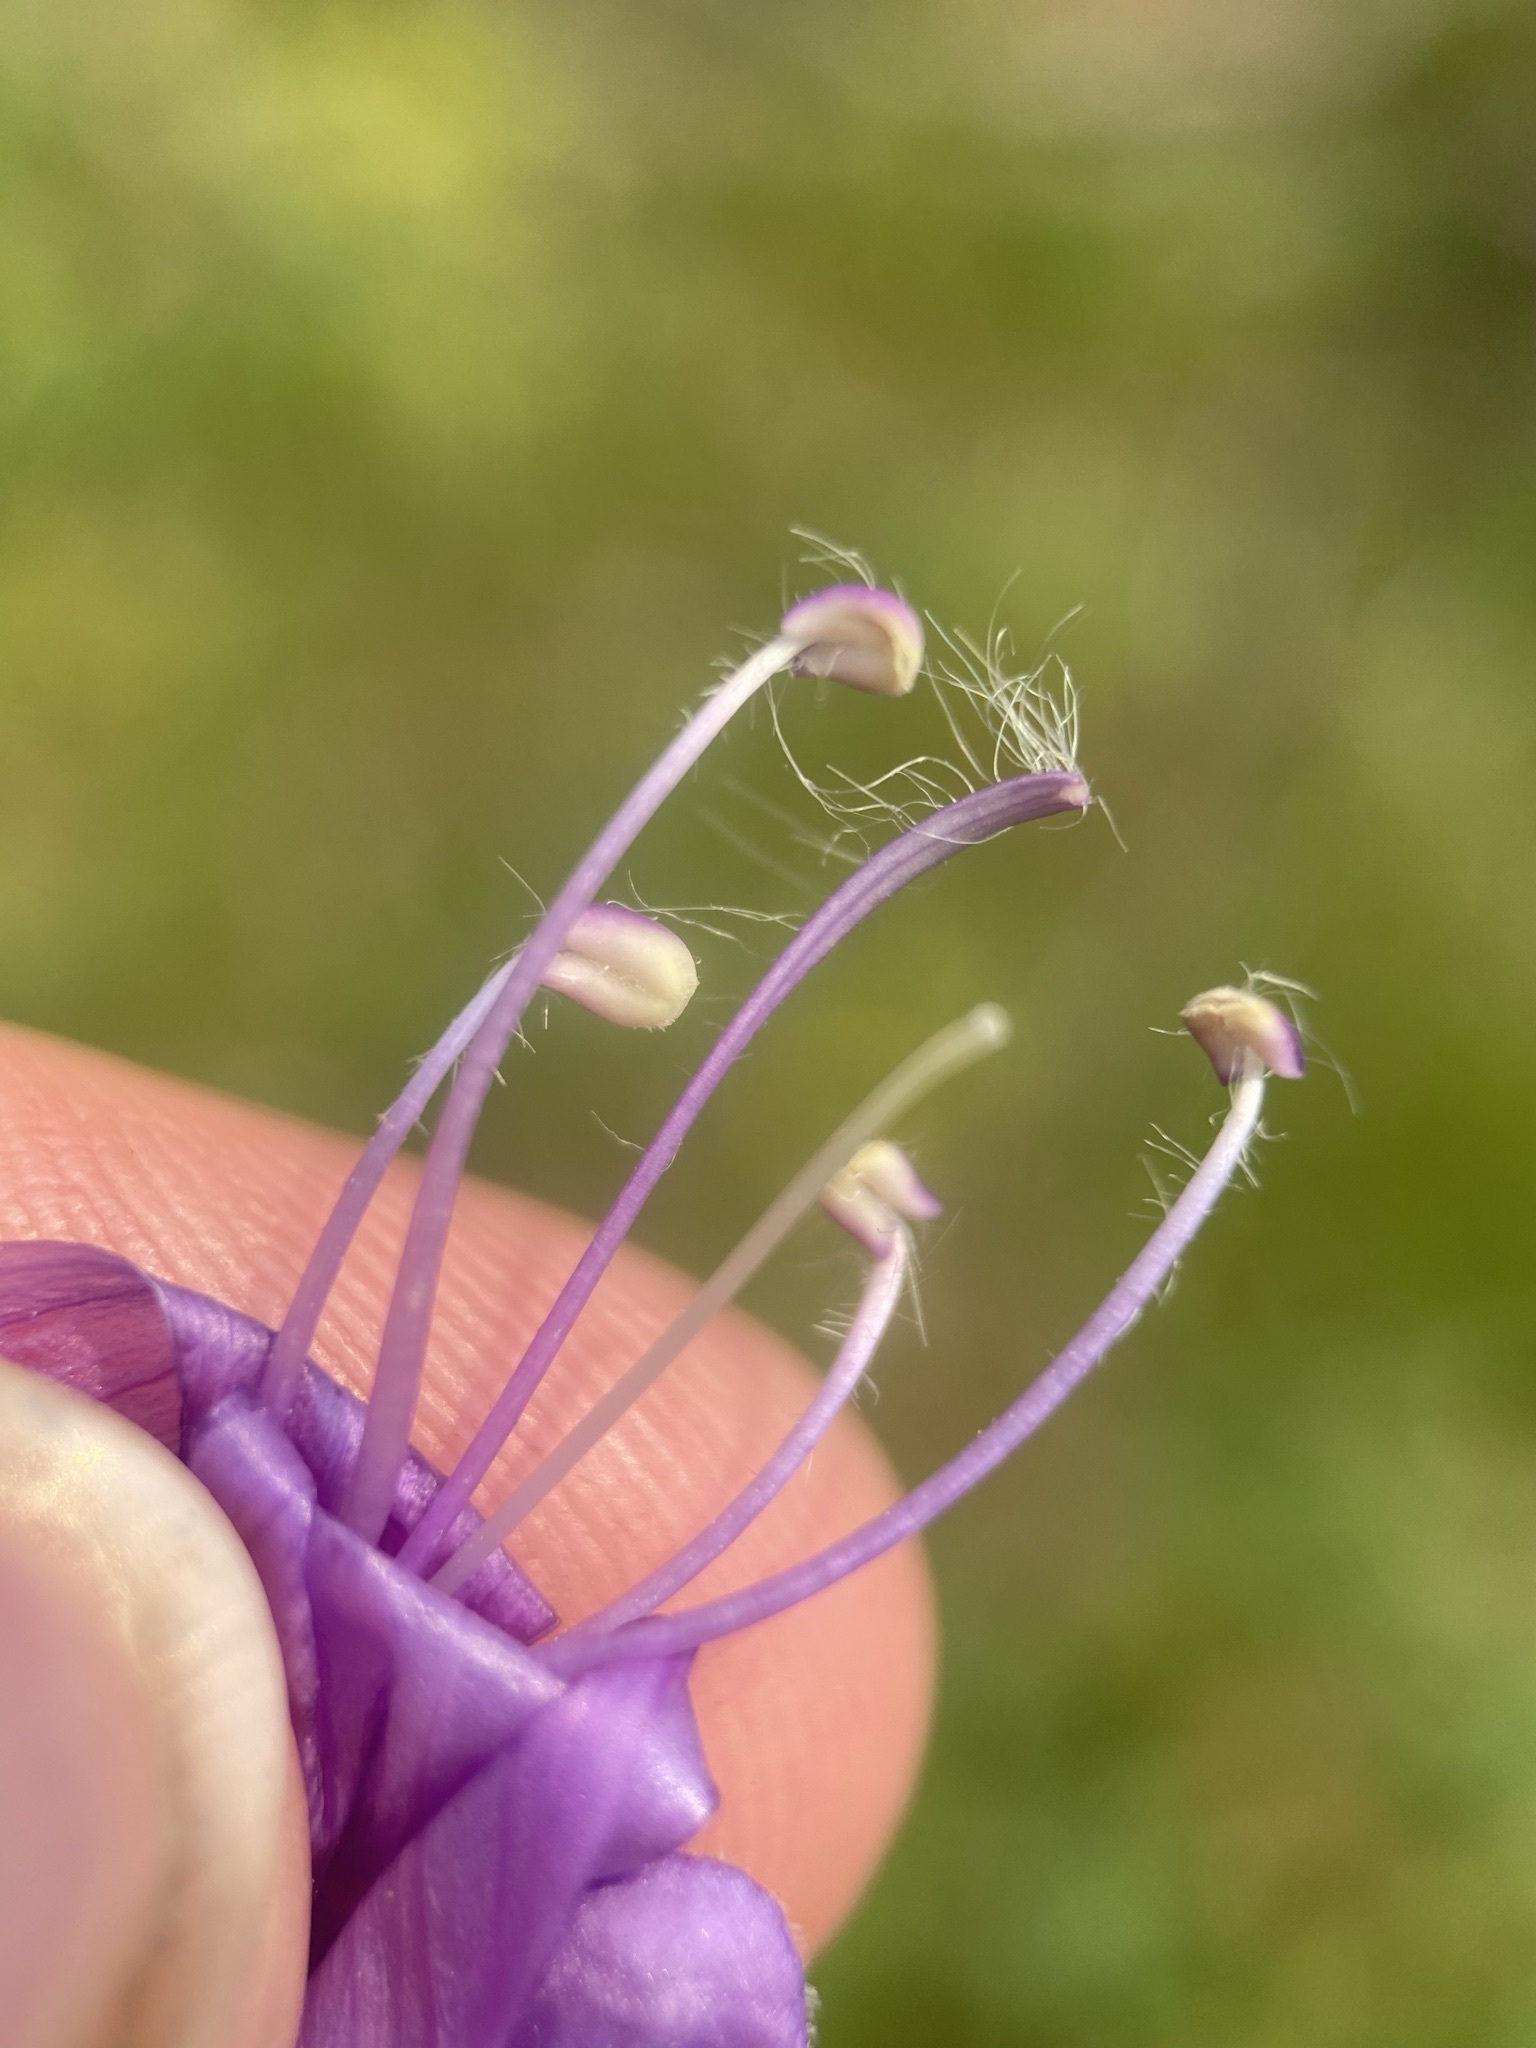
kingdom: Plantae
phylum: Tracheophyta
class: Magnoliopsida
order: Lamiales
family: Plantaginaceae
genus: Penstemon
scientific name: Penstemon venustus
